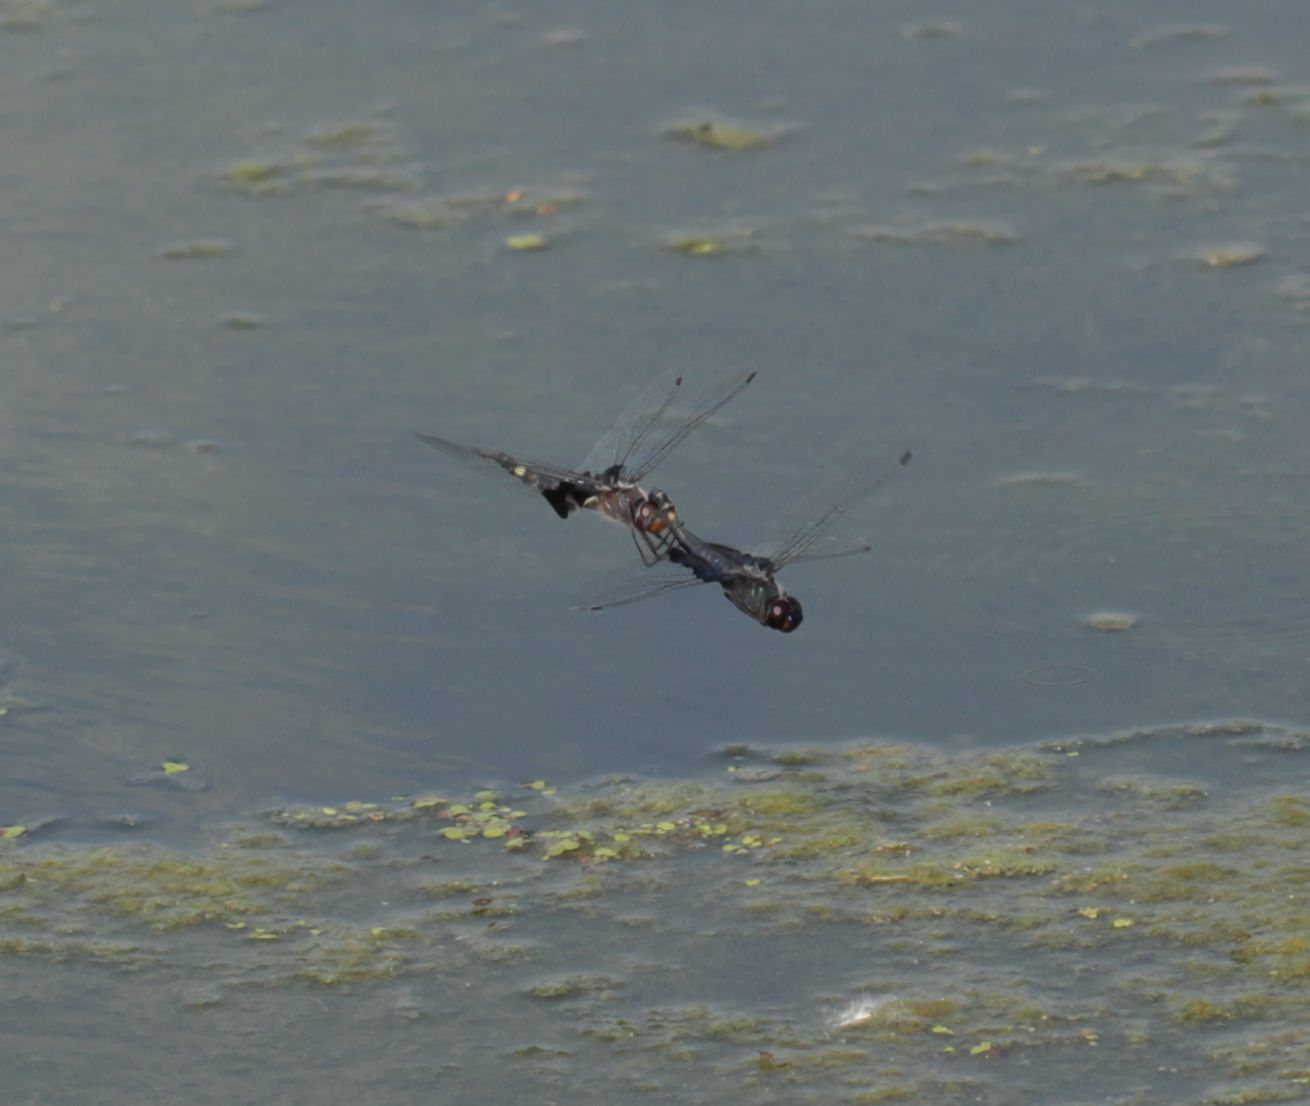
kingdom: Animalia
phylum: Arthropoda
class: Insecta
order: Odonata
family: Libellulidae
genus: Tramea
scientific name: Tramea lacerata
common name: Black saddlebags
